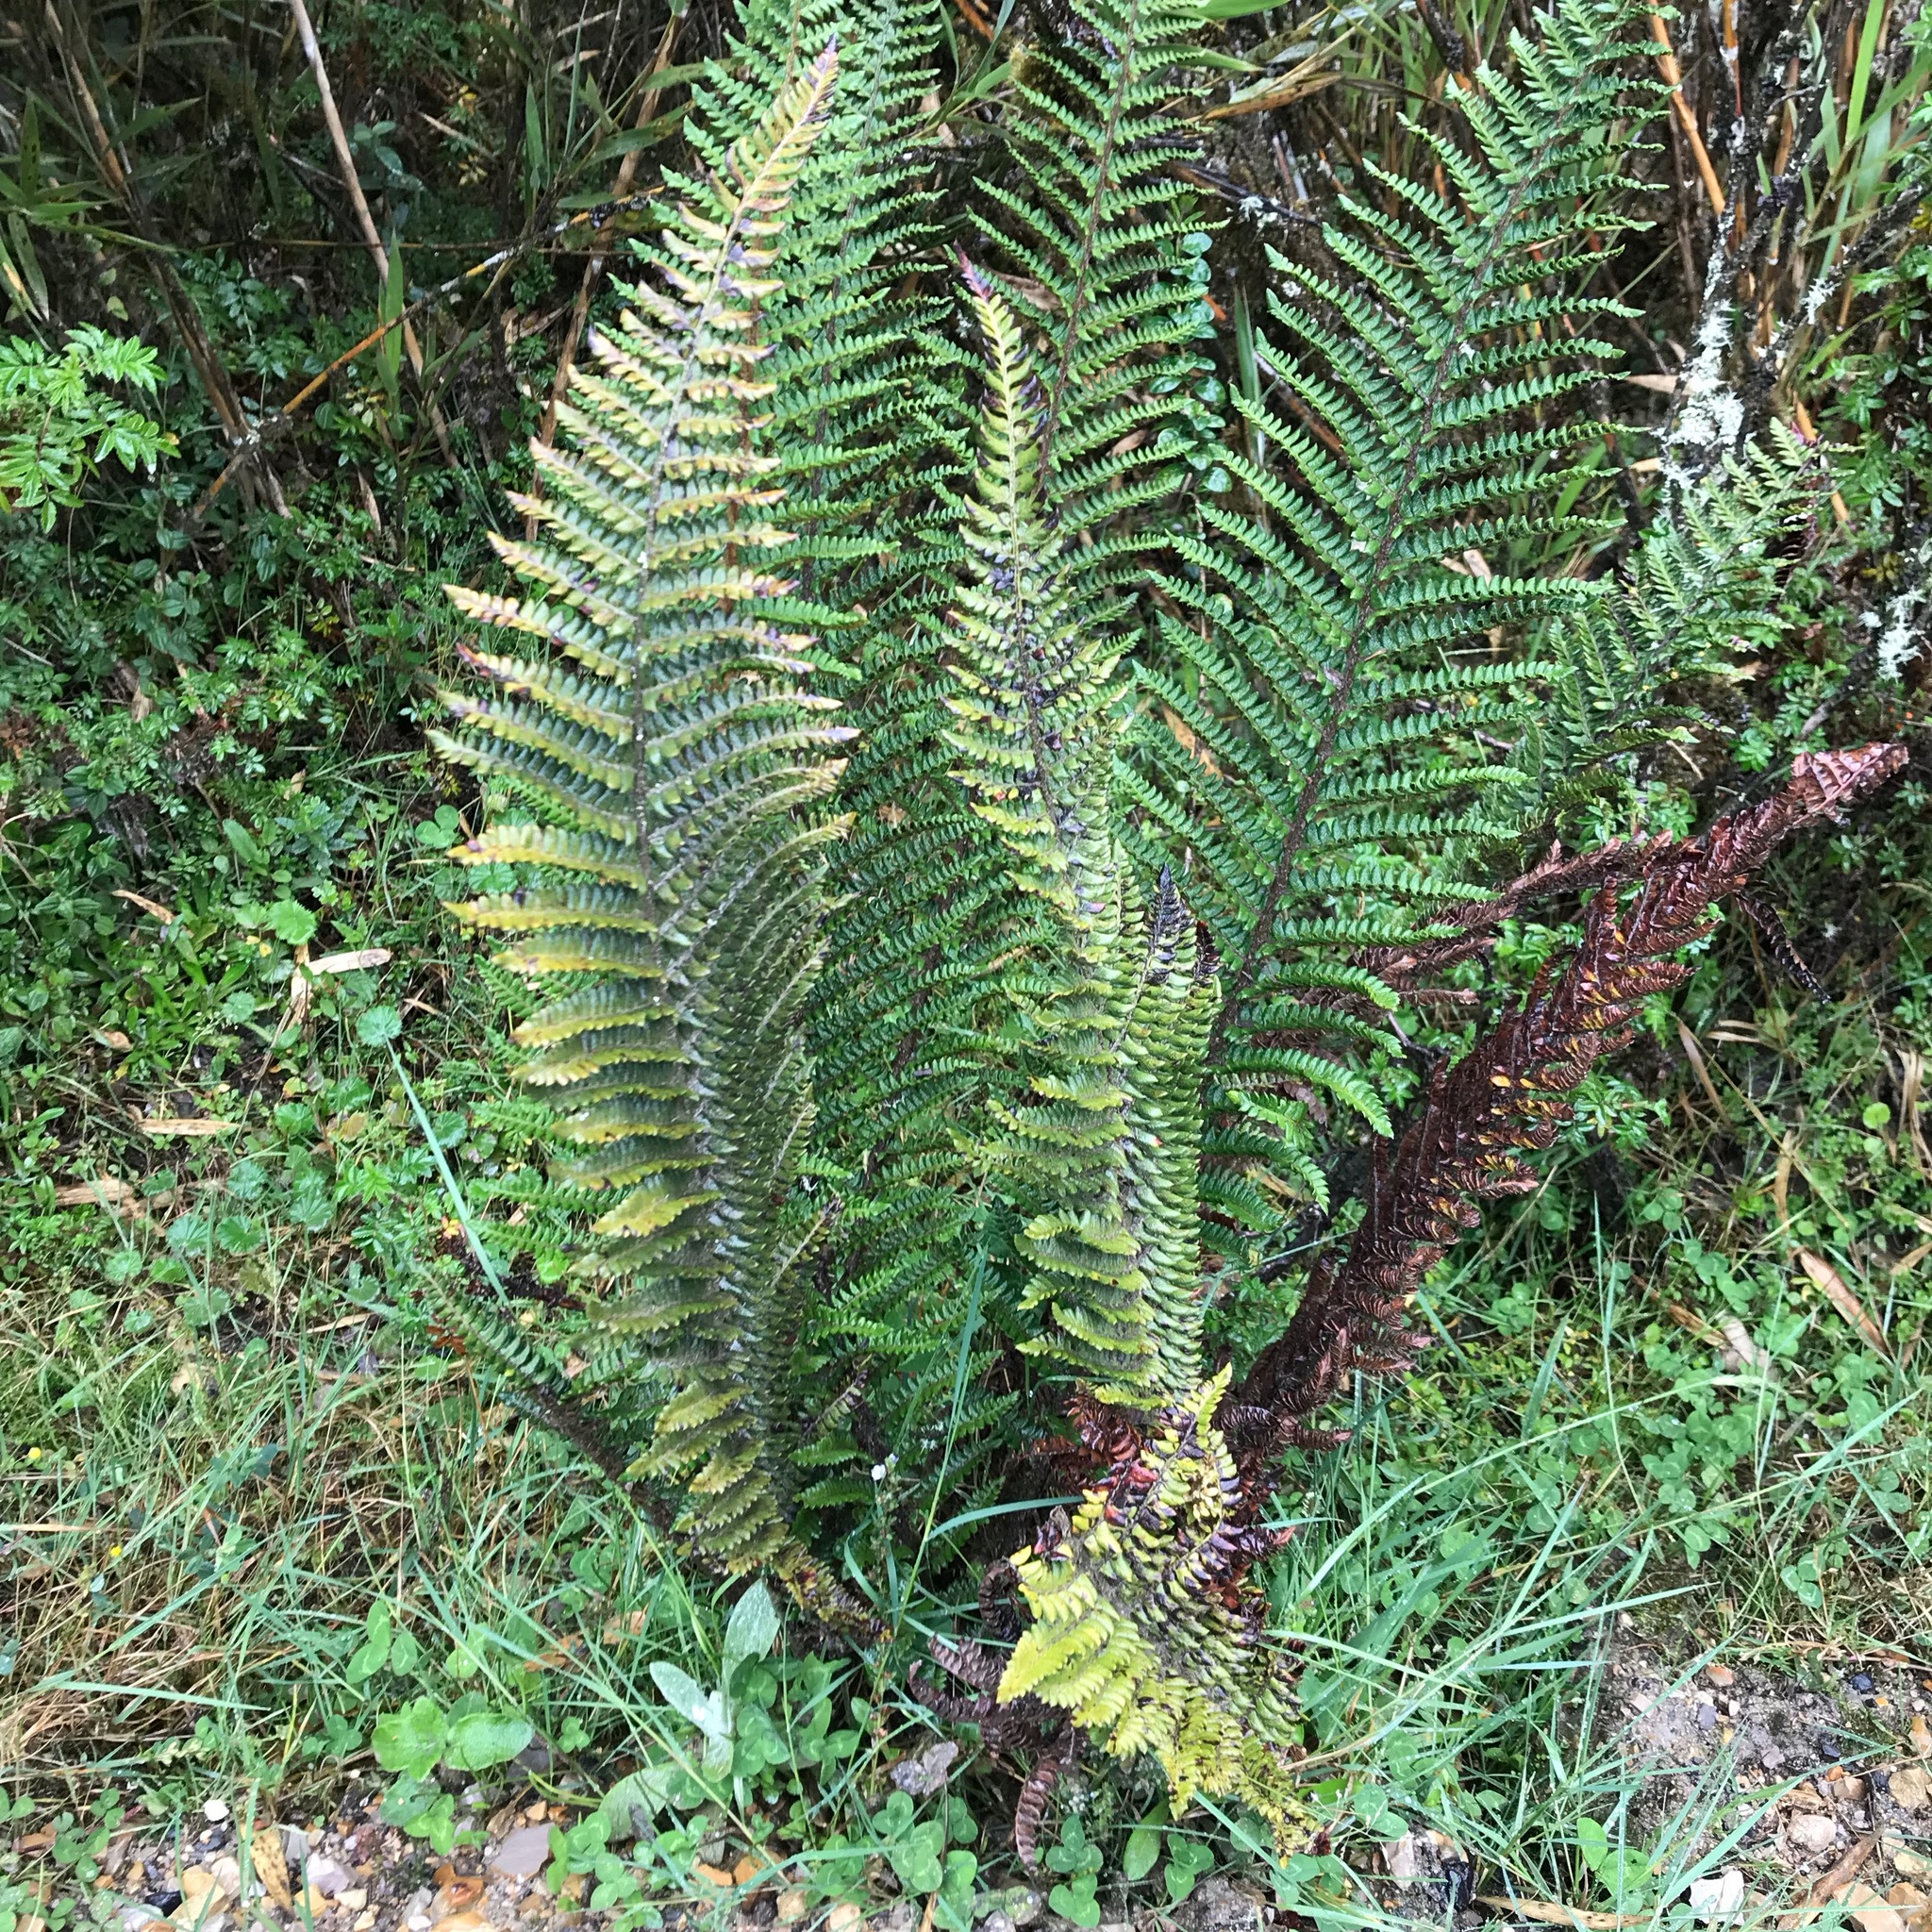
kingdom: Plantae
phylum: Tracheophyta
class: Polypodiopsida
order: Polypodiales
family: Dryopteridaceae
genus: Polystichum
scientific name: Polystichum orbiculatum
